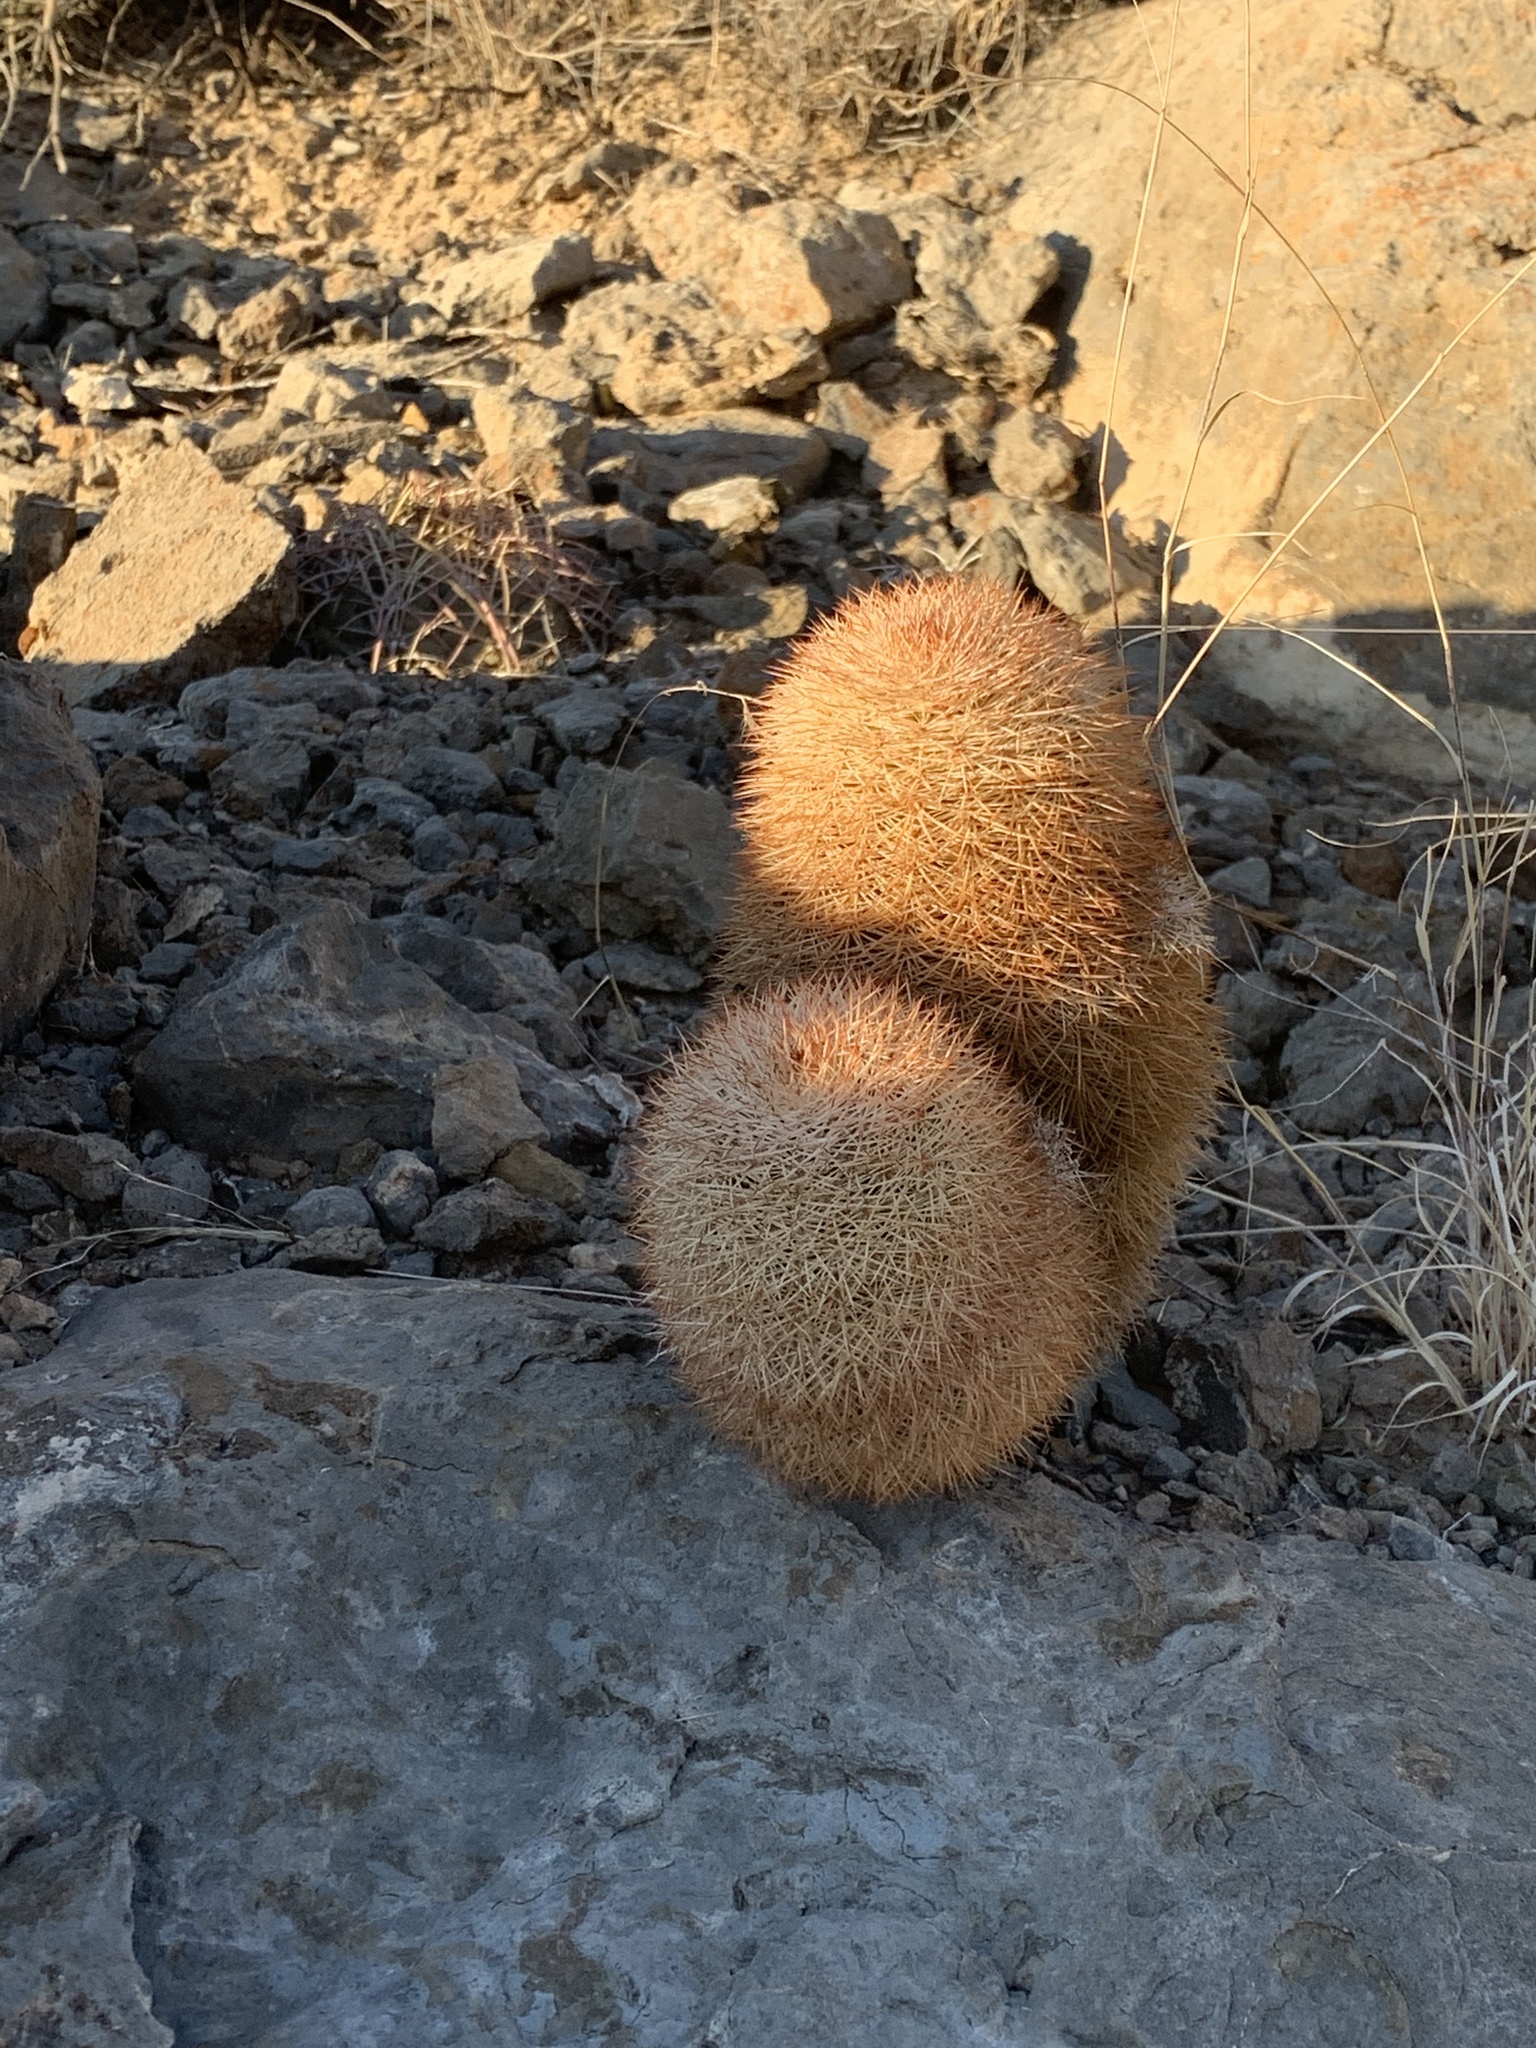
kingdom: Plantae
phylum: Tracheophyta
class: Magnoliopsida
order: Caryophyllales
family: Cactaceae
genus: Echinocereus
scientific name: Echinocereus dasyacanthus
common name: Spiny hedgehog cactus
